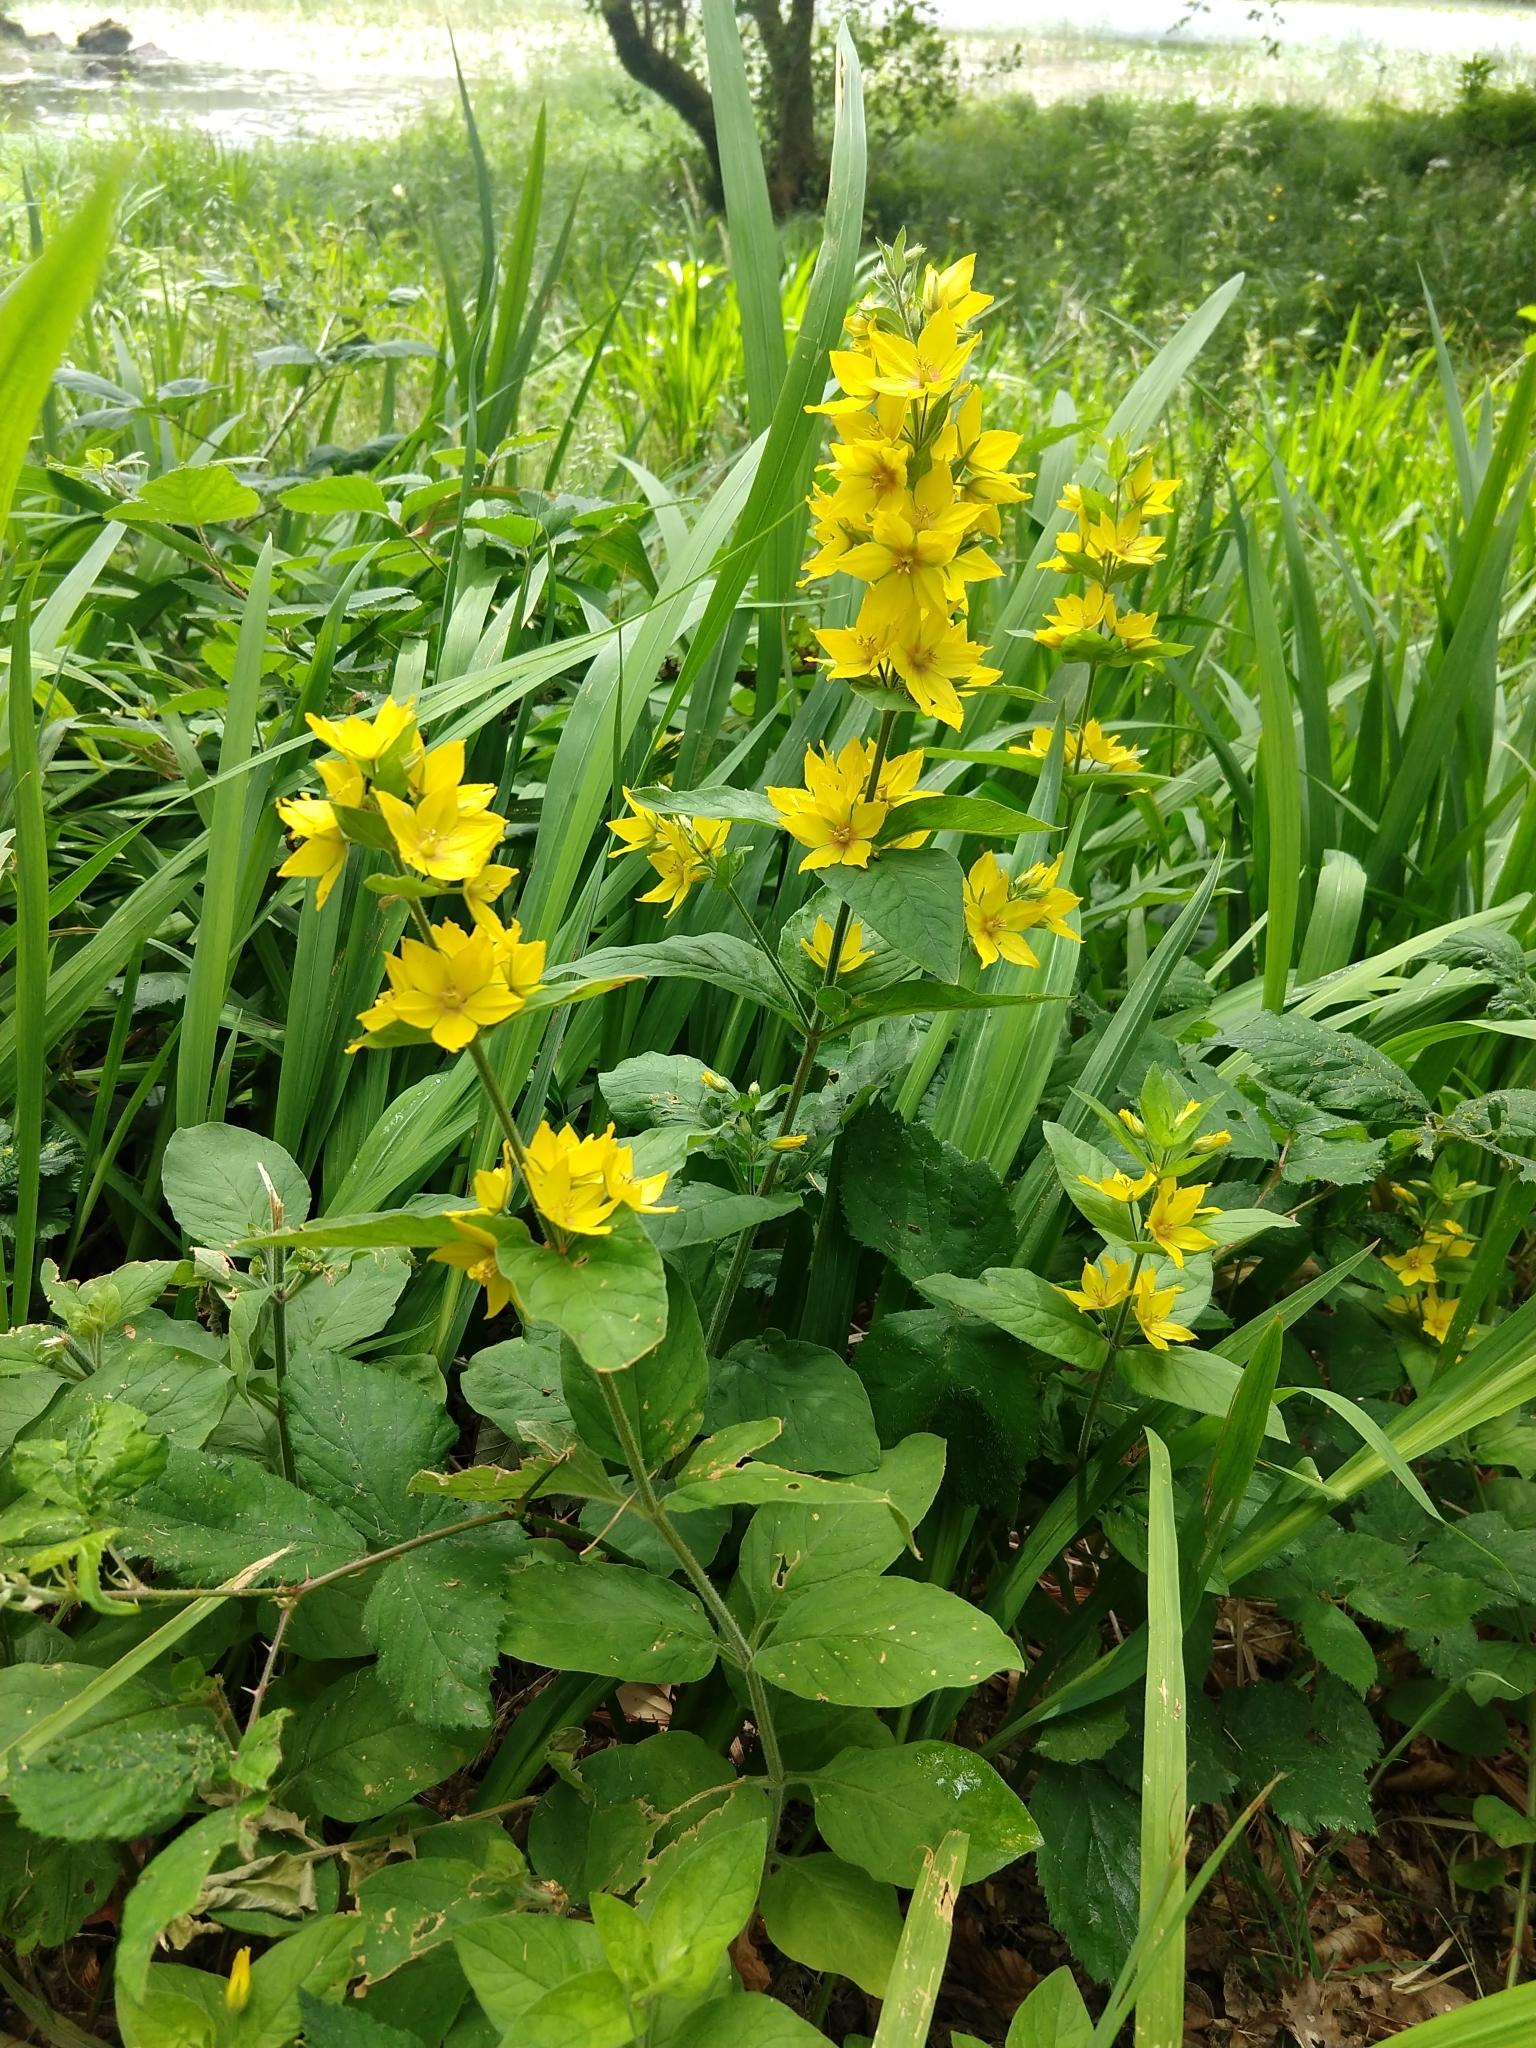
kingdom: Plantae
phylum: Tracheophyta
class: Magnoliopsida
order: Ericales
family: Primulaceae
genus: Lysimachia
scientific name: Lysimachia punctata
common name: Dotted loosestrife
